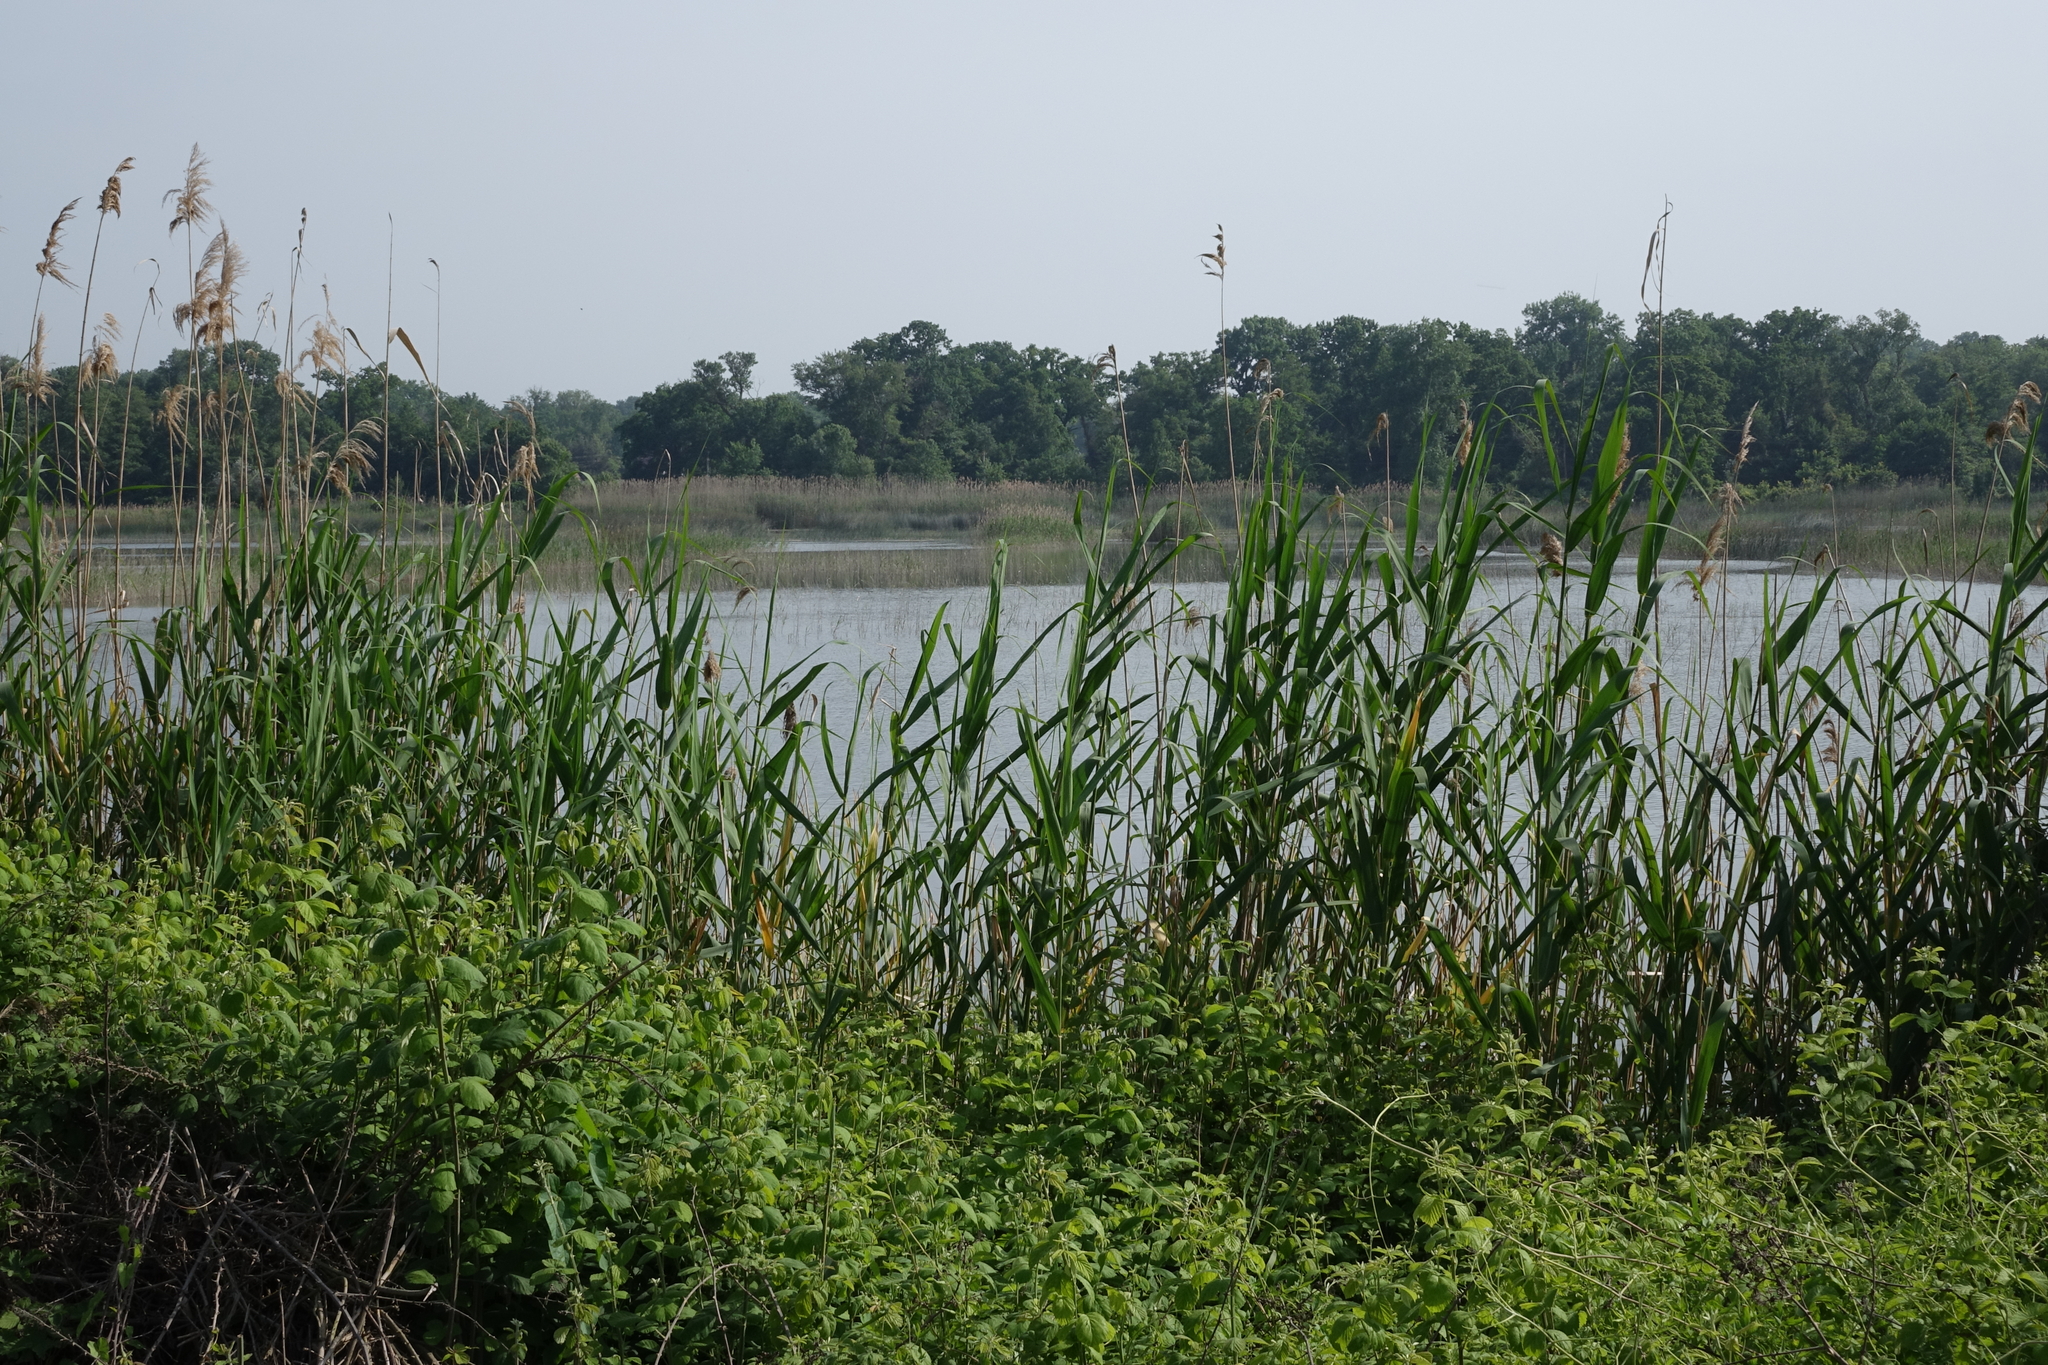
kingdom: Plantae
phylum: Tracheophyta
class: Liliopsida
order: Poales
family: Poaceae
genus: Phragmites
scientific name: Phragmites australis
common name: Common reed
